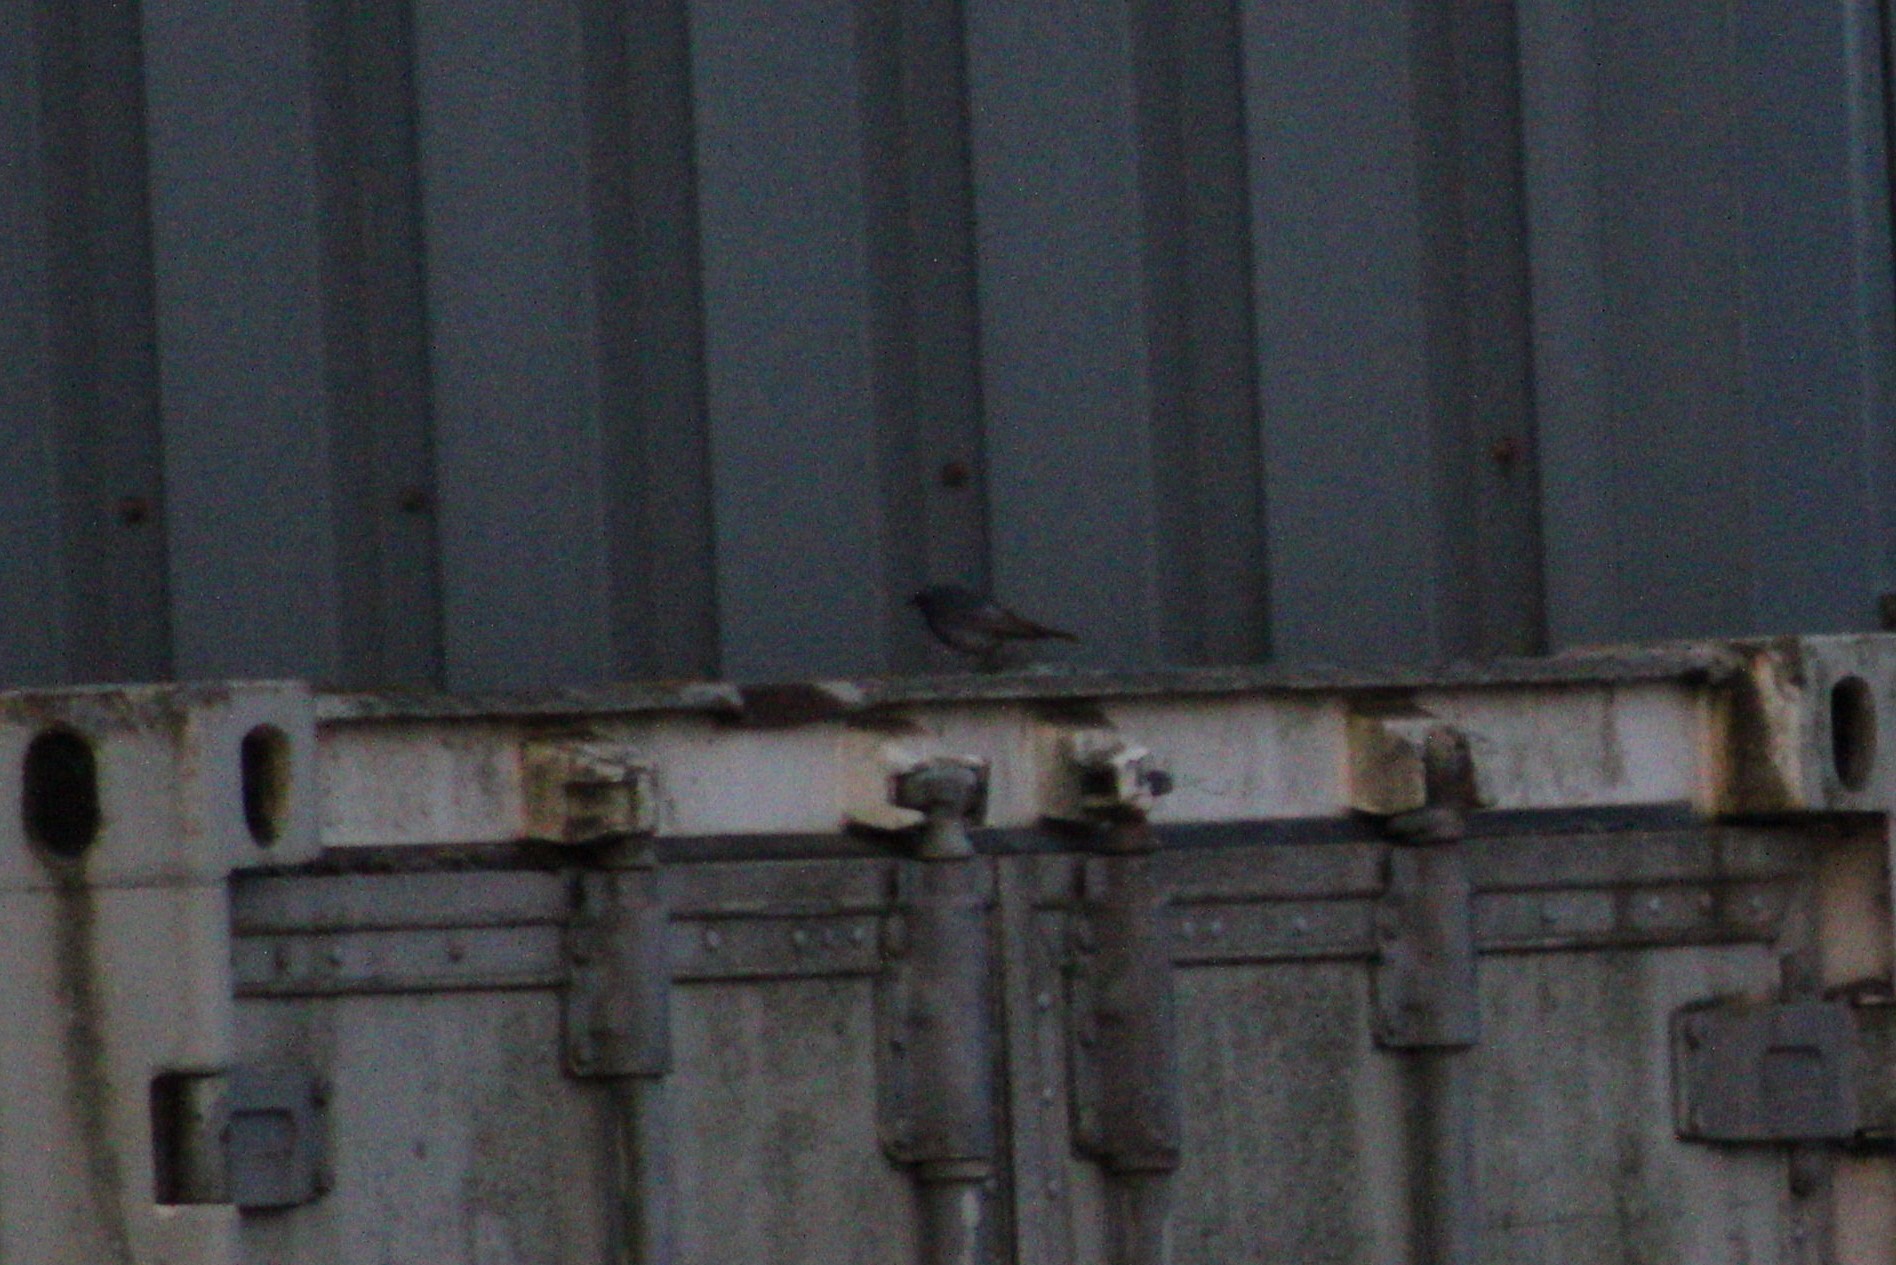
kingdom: Animalia
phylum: Chordata
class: Aves
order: Passeriformes
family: Muscicapidae
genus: Phoenicurus
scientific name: Phoenicurus ochruros
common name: Black redstart
